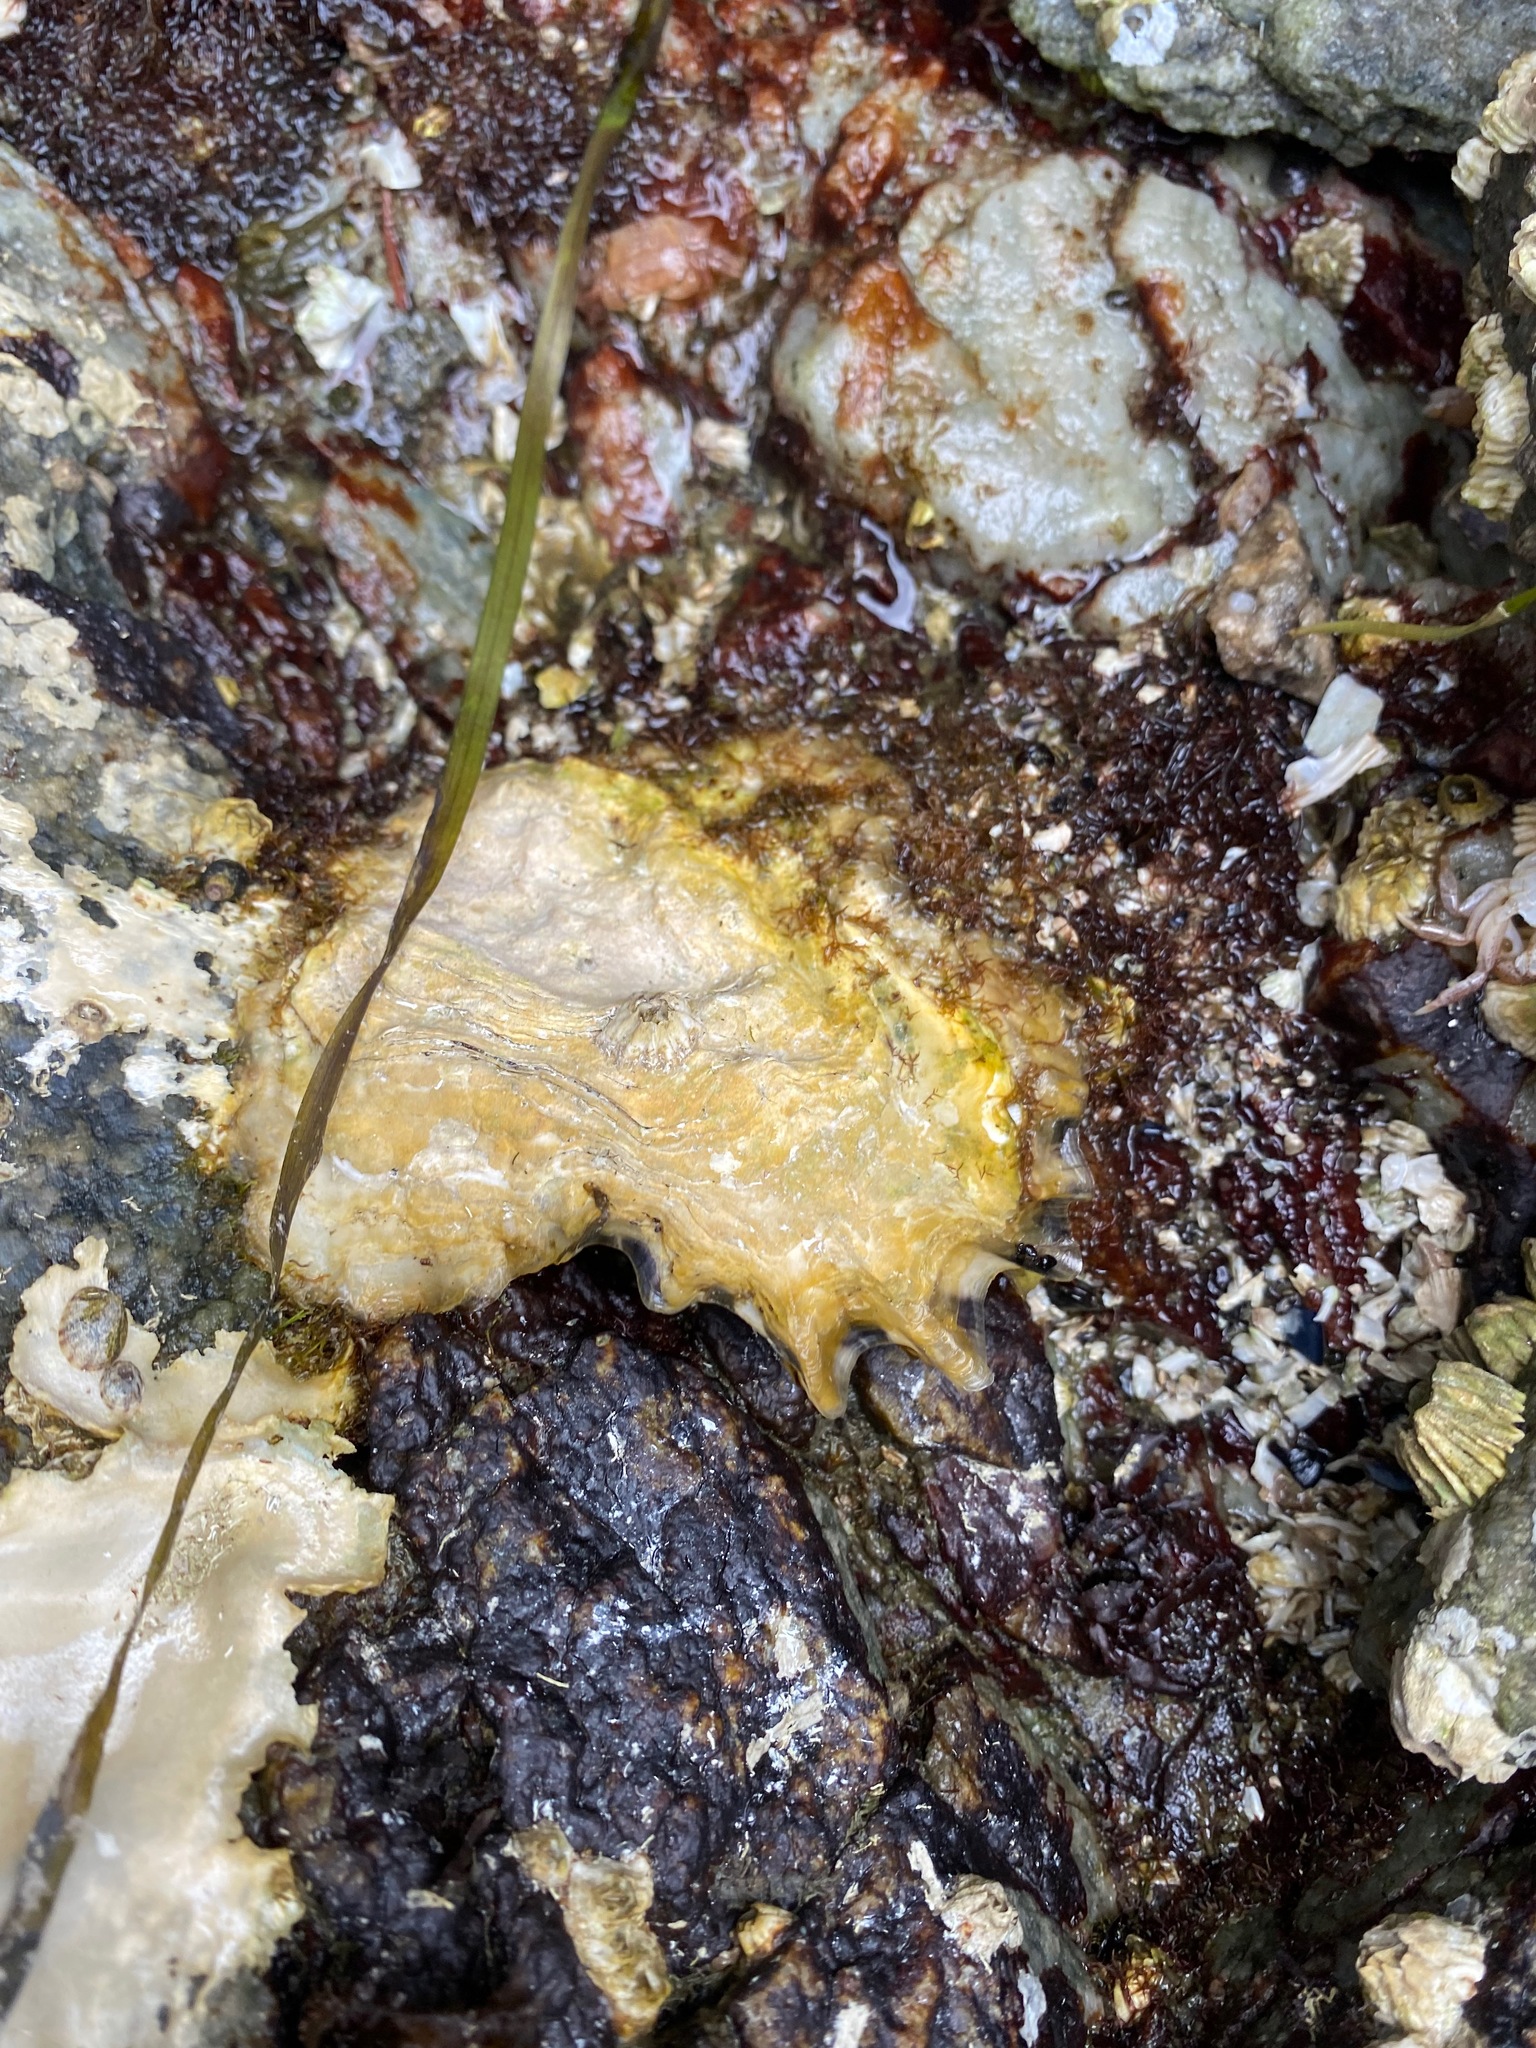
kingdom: Animalia
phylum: Mollusca
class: Bivalvia
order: Ostreida
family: Ostreidae
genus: Magallana
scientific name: Magallana gigas
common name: Pacific oyster
